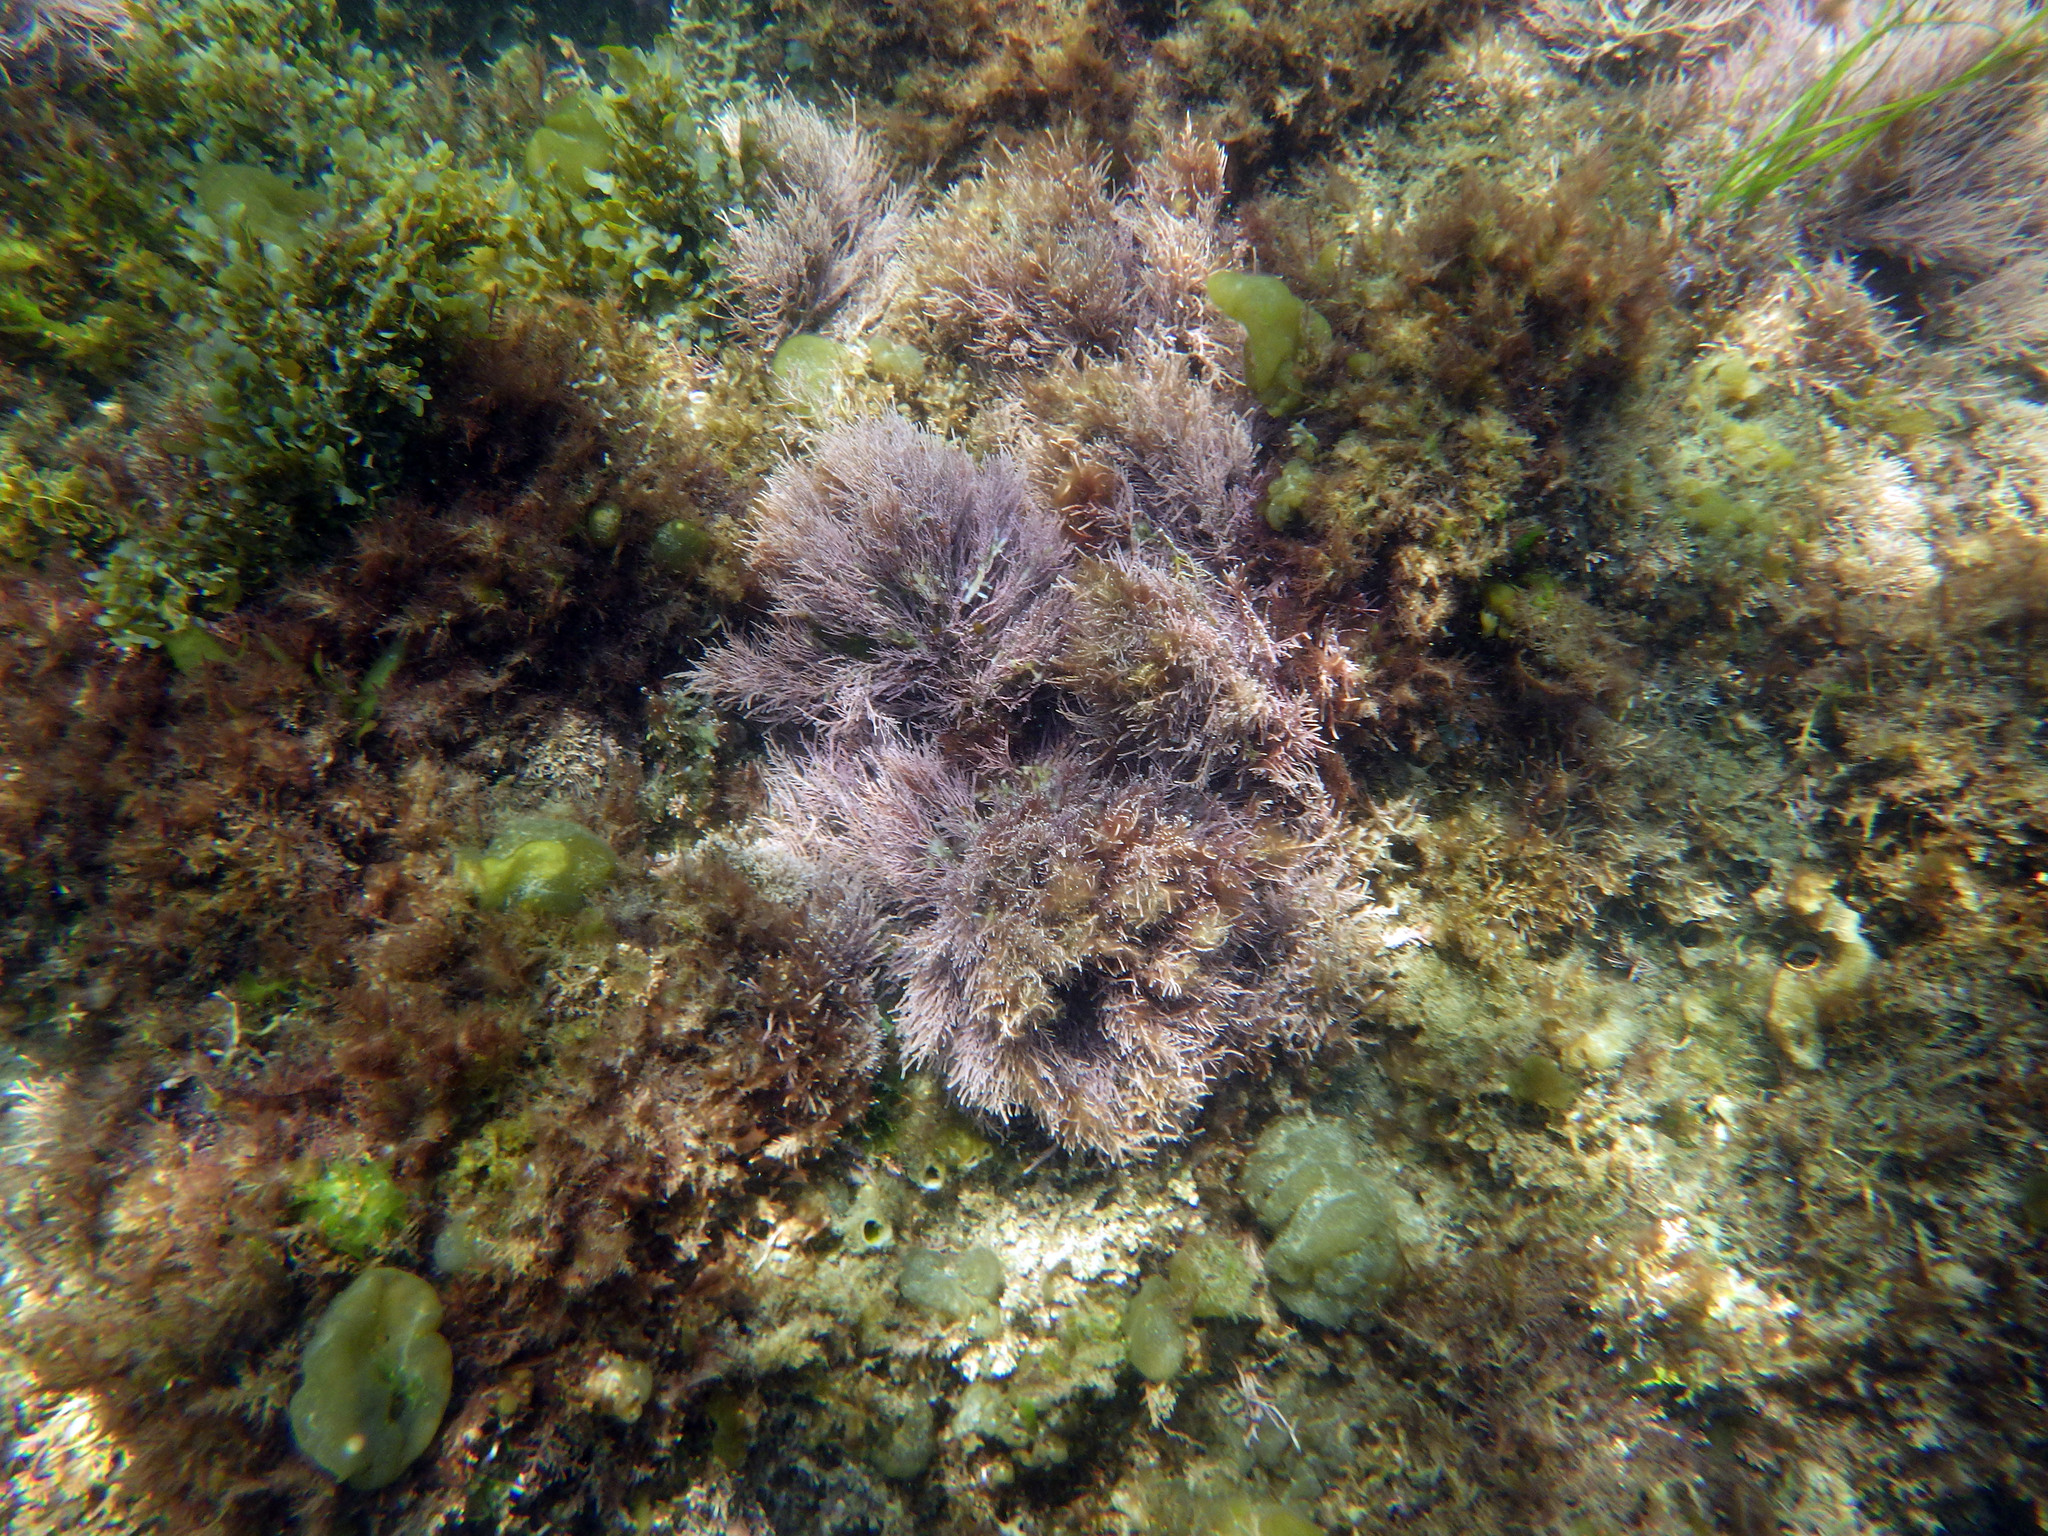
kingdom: Plantae
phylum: Rhodophyta
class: Florideophyceae
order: Corallinales
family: Lithophyllaceae
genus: Lithothrix
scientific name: Lithothrix aspergillum
